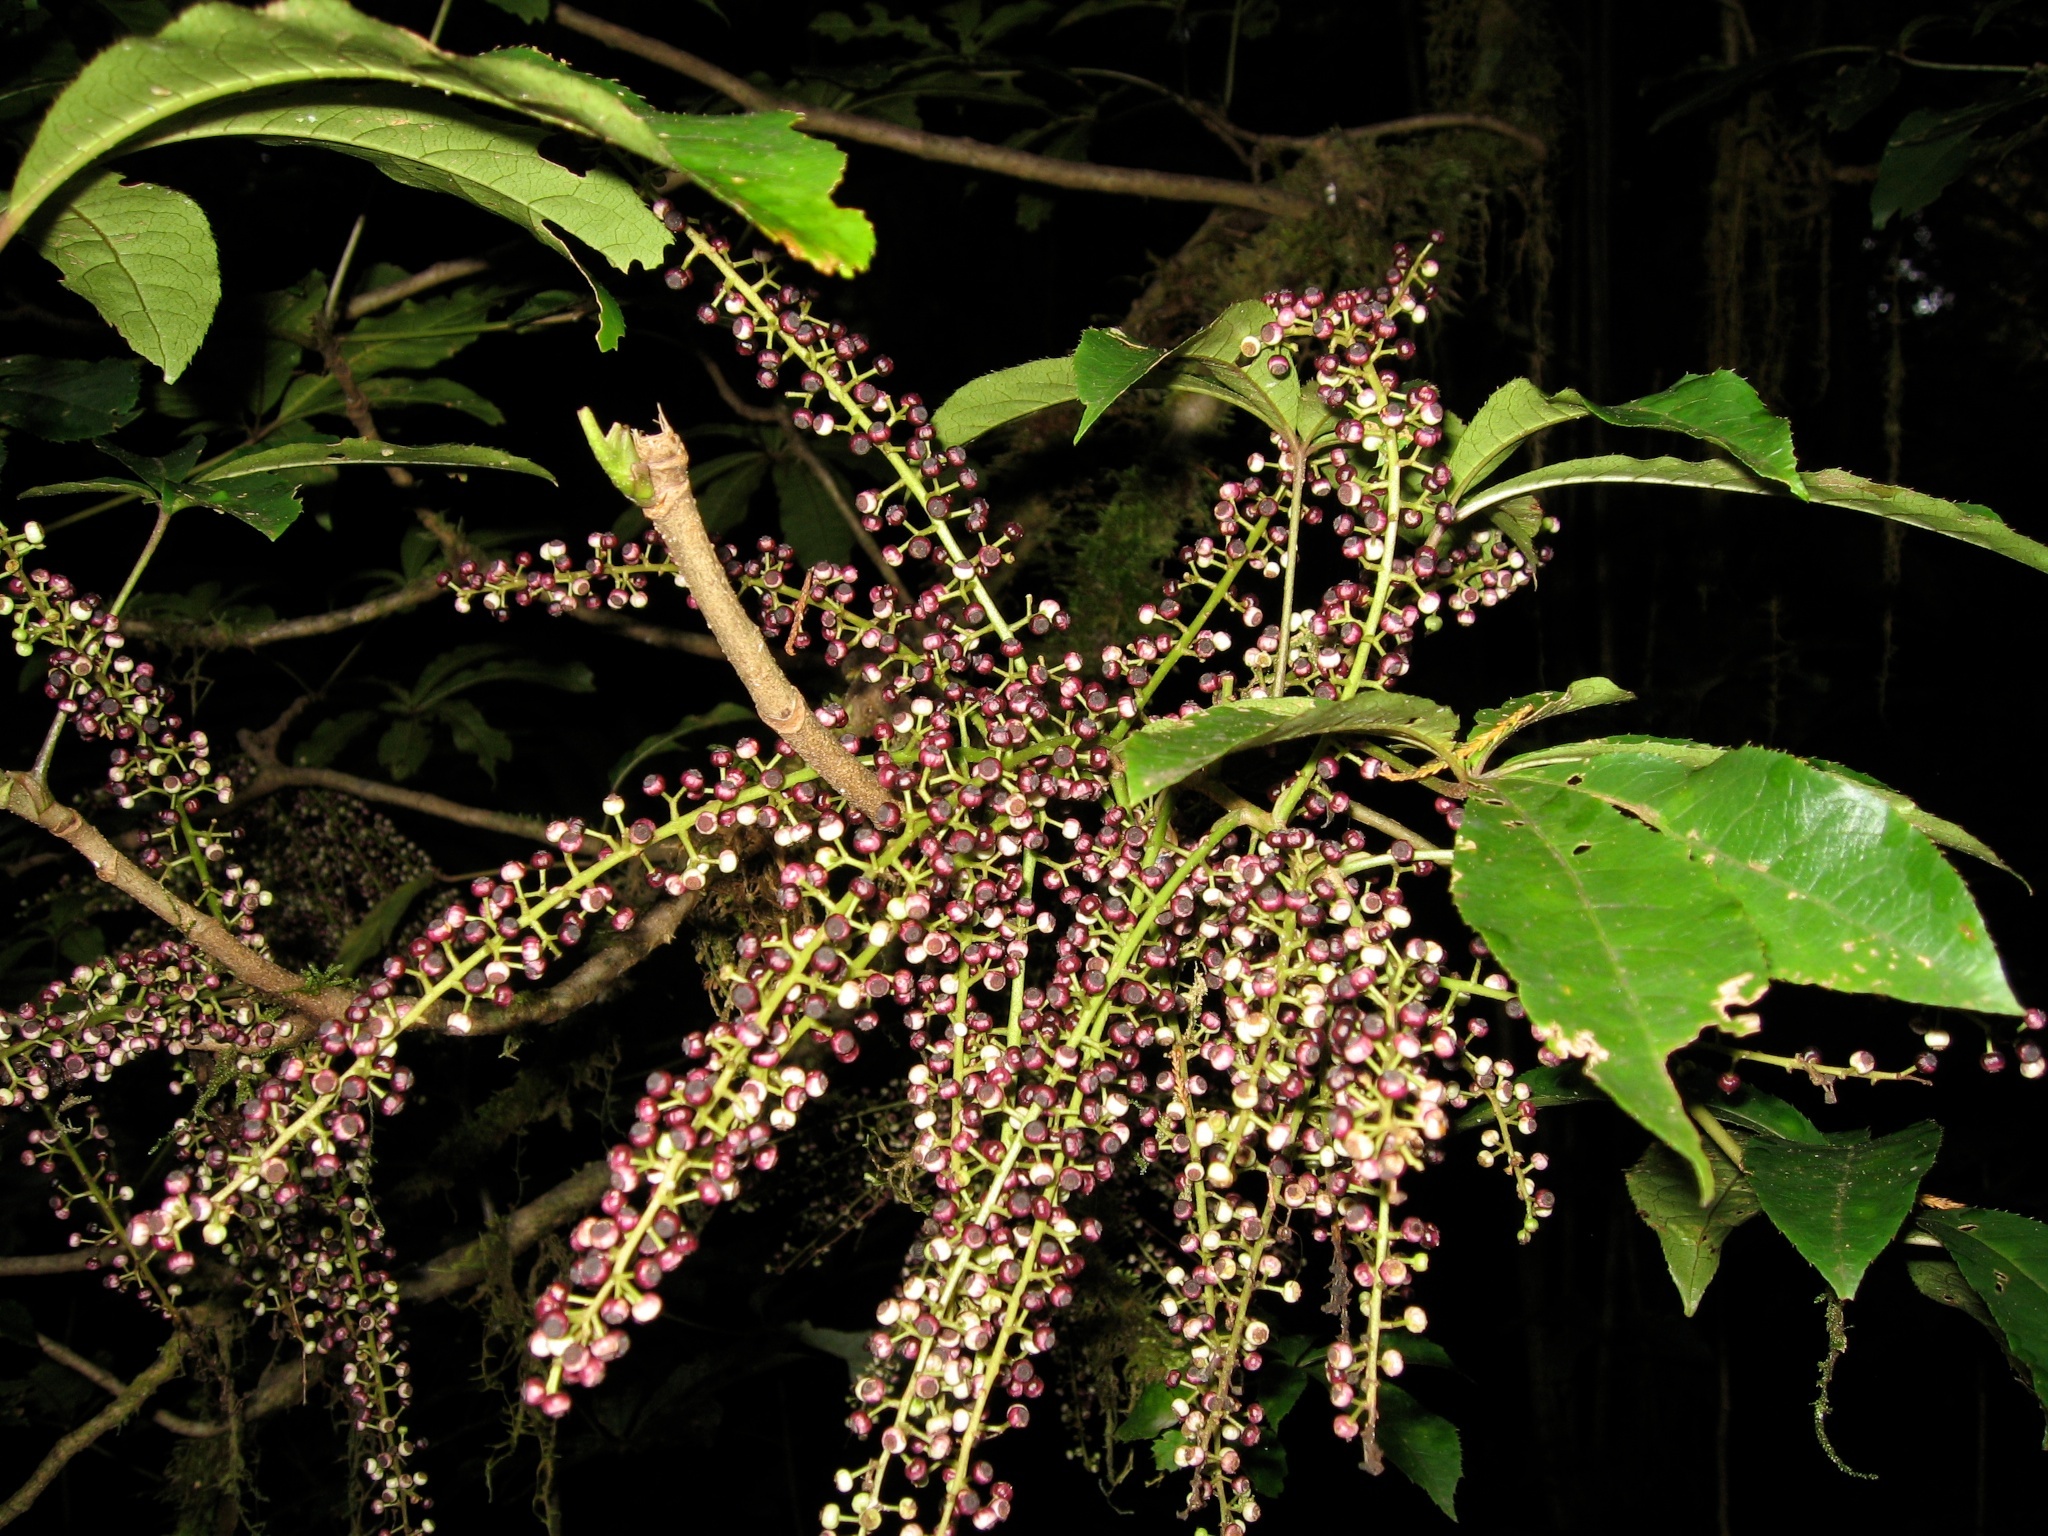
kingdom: Plantae
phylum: Tracheophyta
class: Magnoliopsida
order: Apiales
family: Araliaceae
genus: Schefflera
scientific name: Schefflera digitata
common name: Pate
